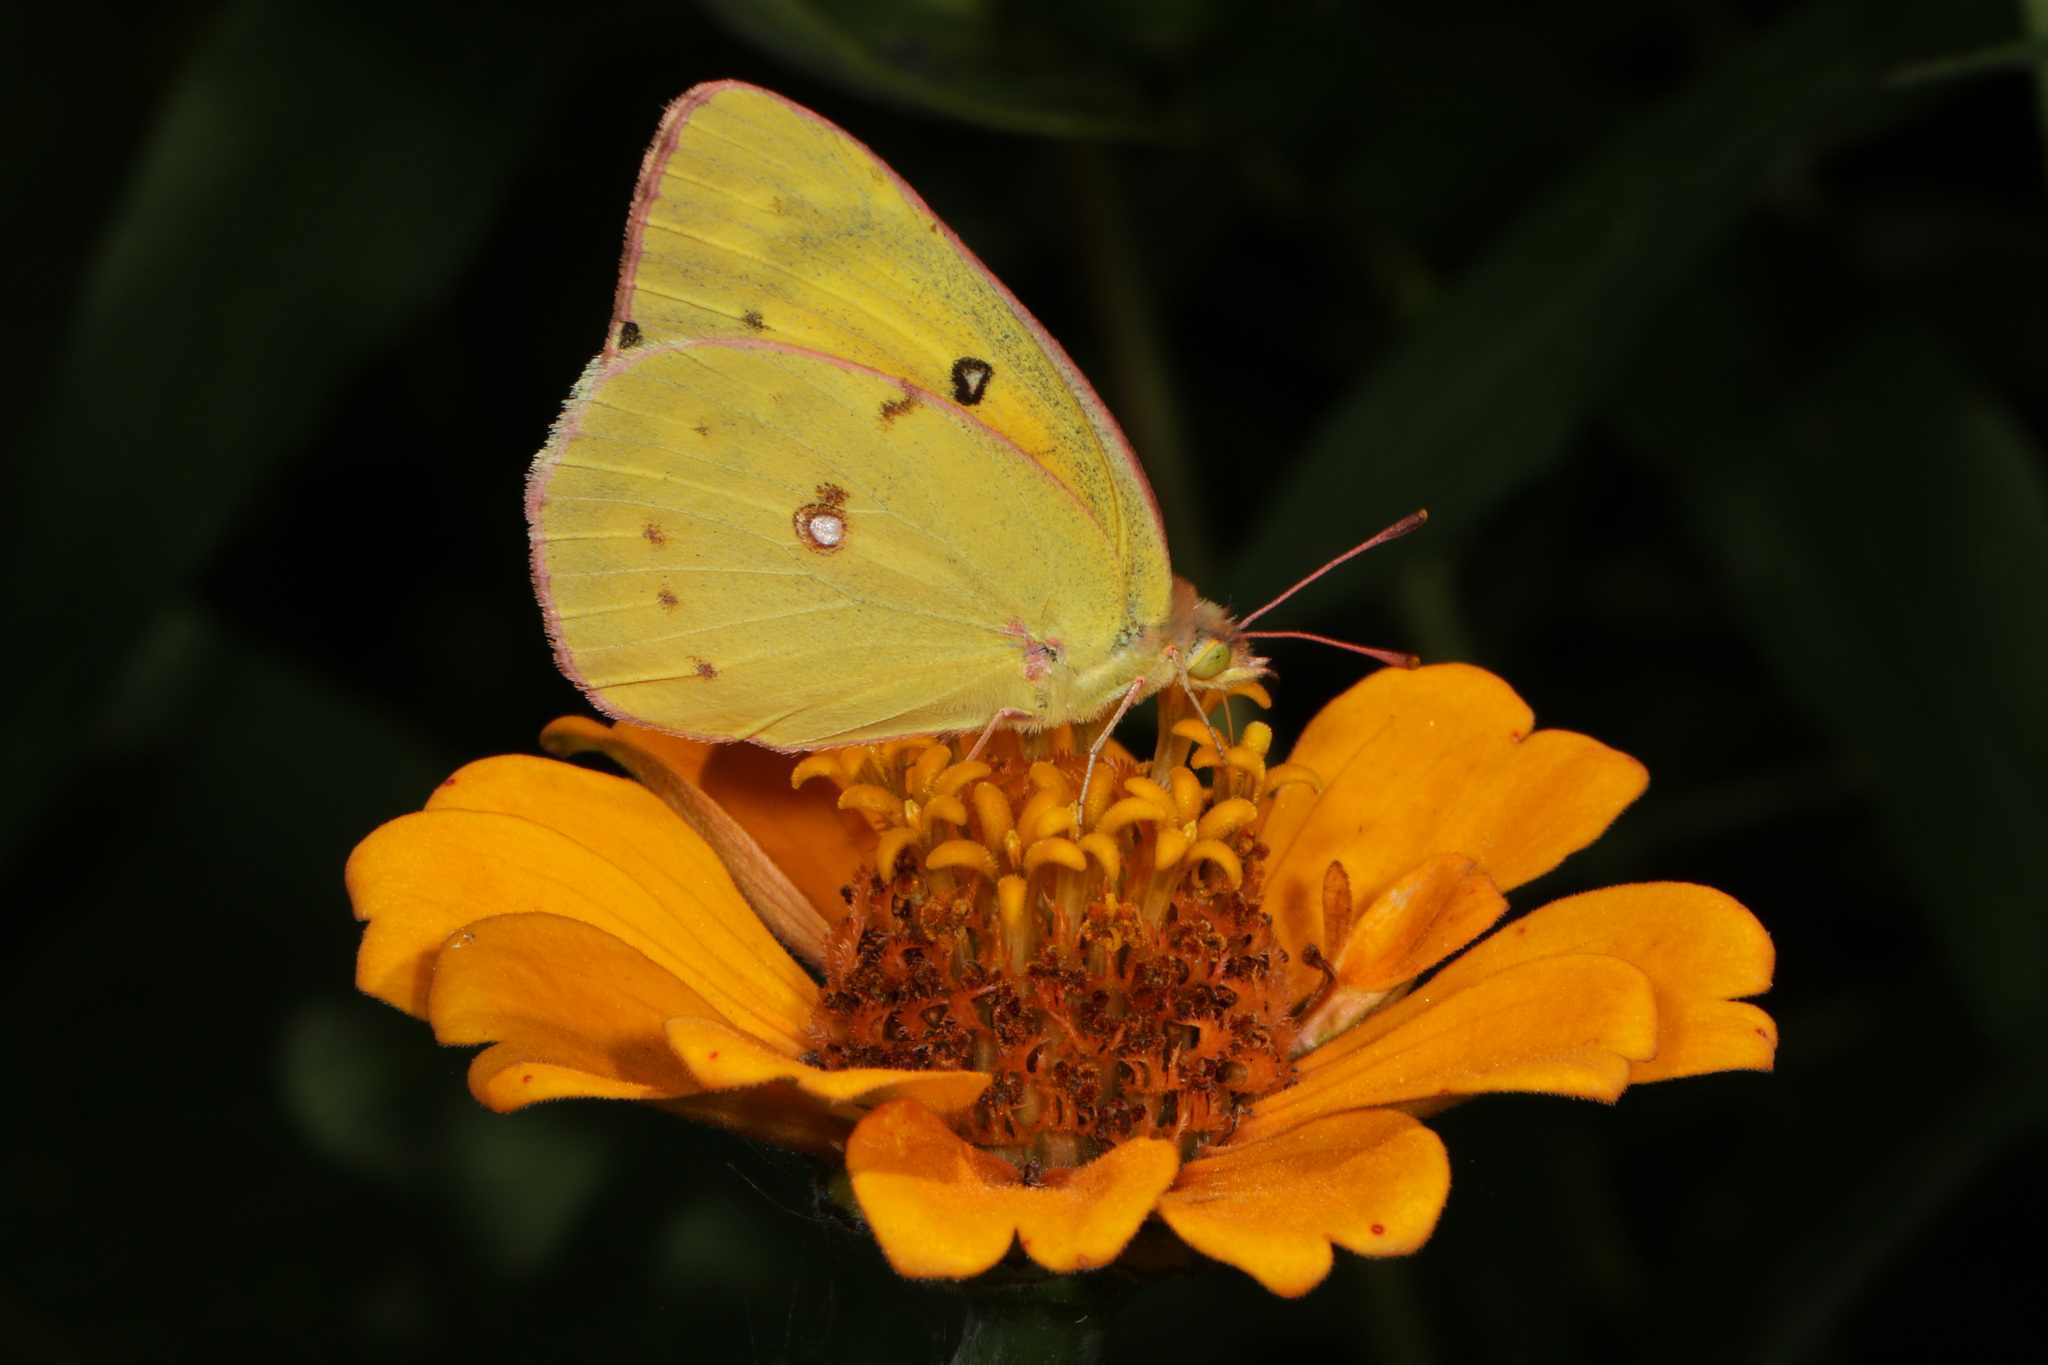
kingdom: Animalia
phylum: Arthropoda
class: Insecta
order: Lepidoptera
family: Pieridae
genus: Colias
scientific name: Colias eurytheme
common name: Alfalfa butterfly
